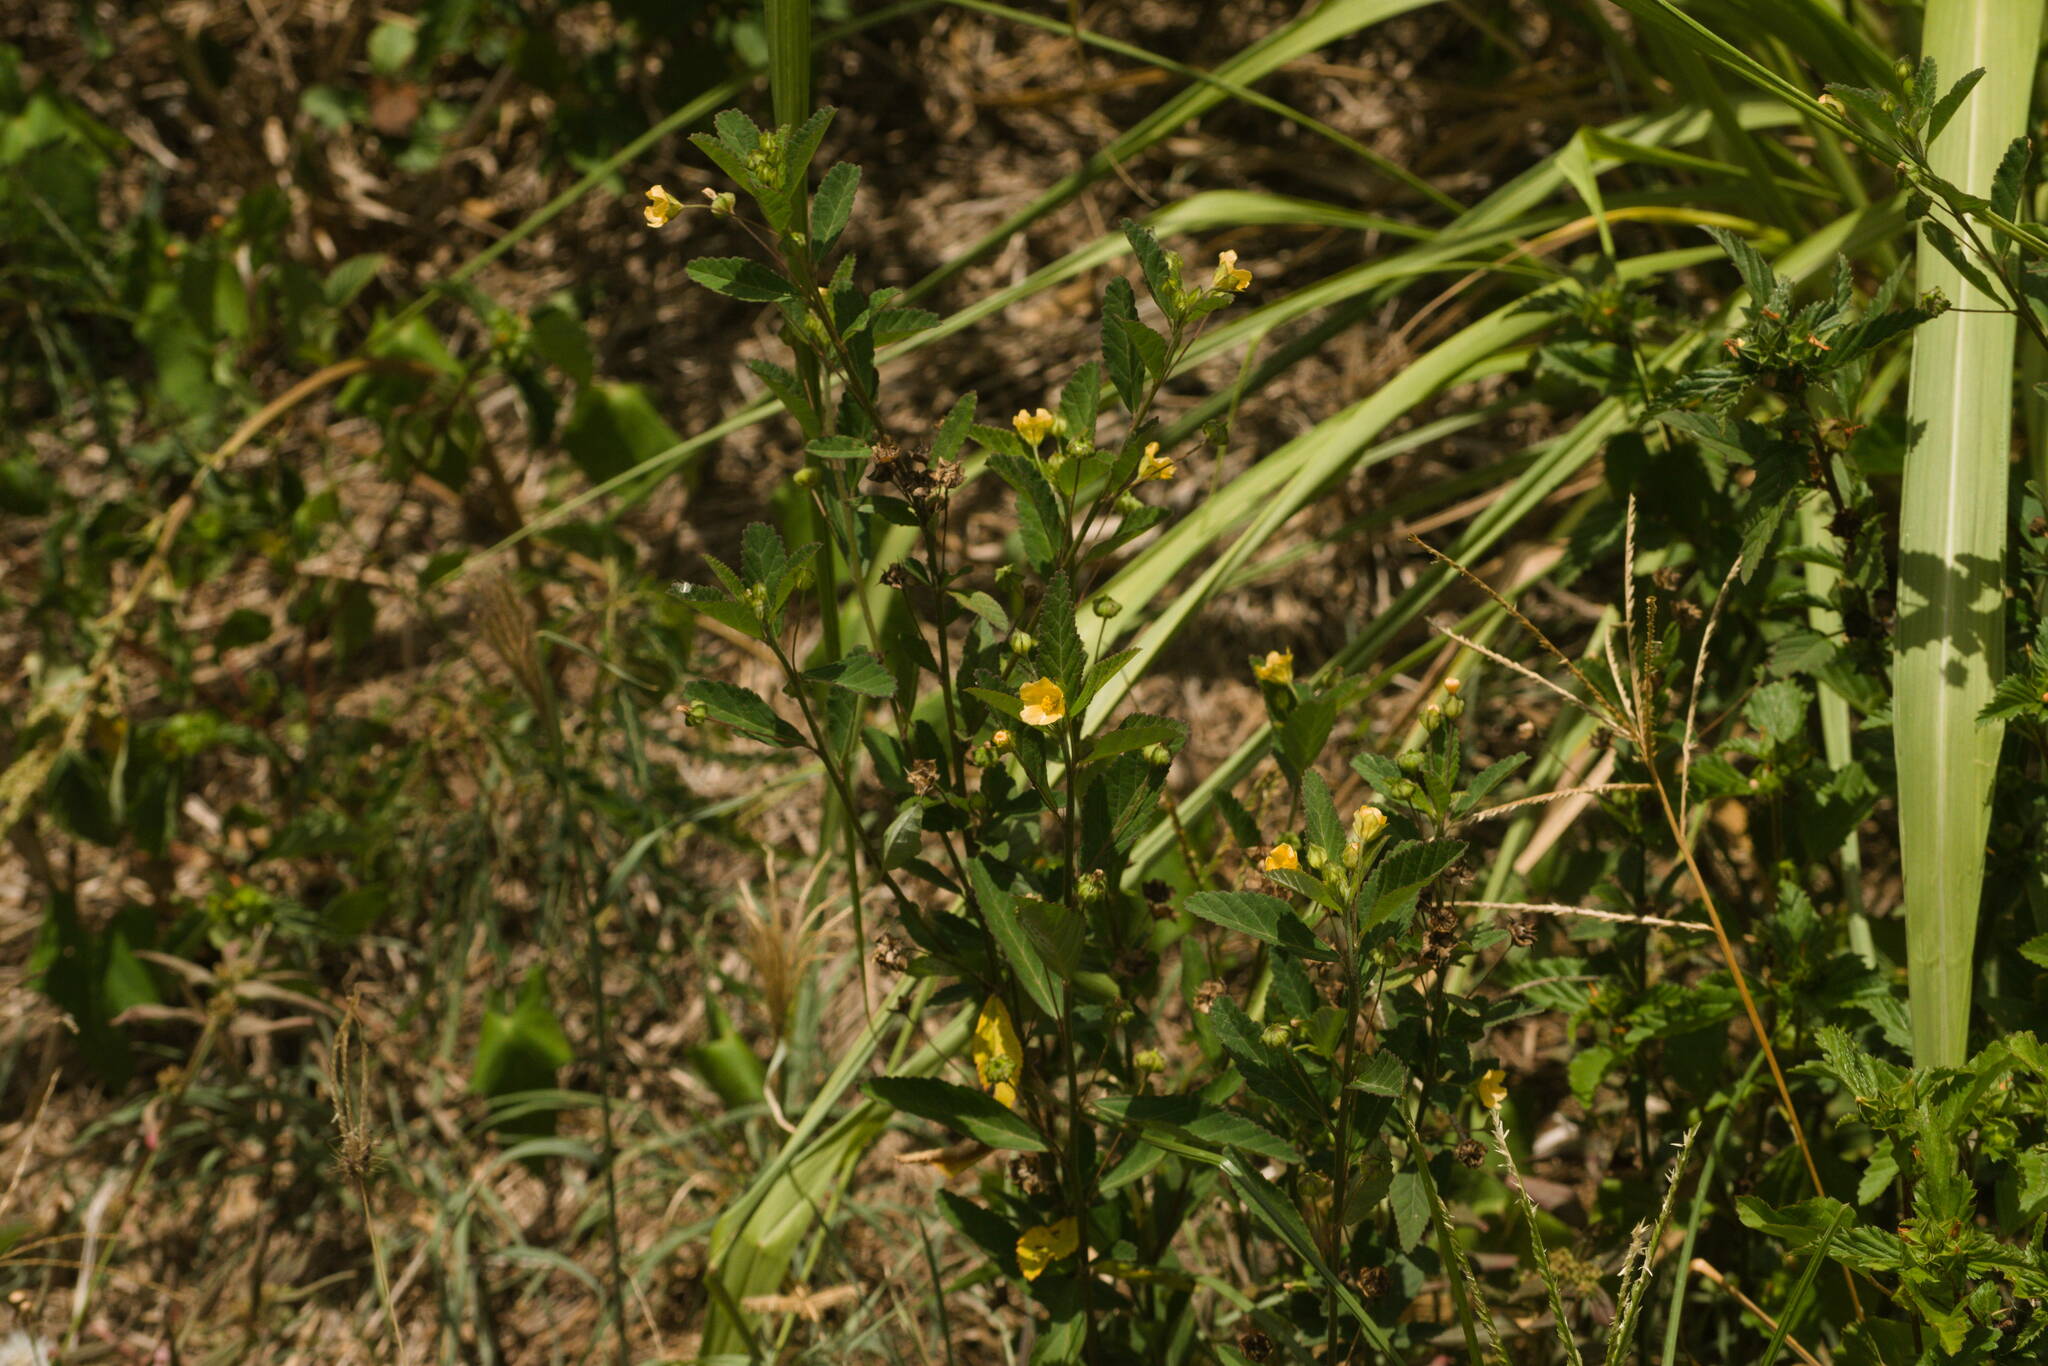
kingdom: Plantae
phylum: Tracheophyta
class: Magnoliopsida
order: Malvales
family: Malvaceae
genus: Sida
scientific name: Sida rhombifolia
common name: Queensland-hemp
